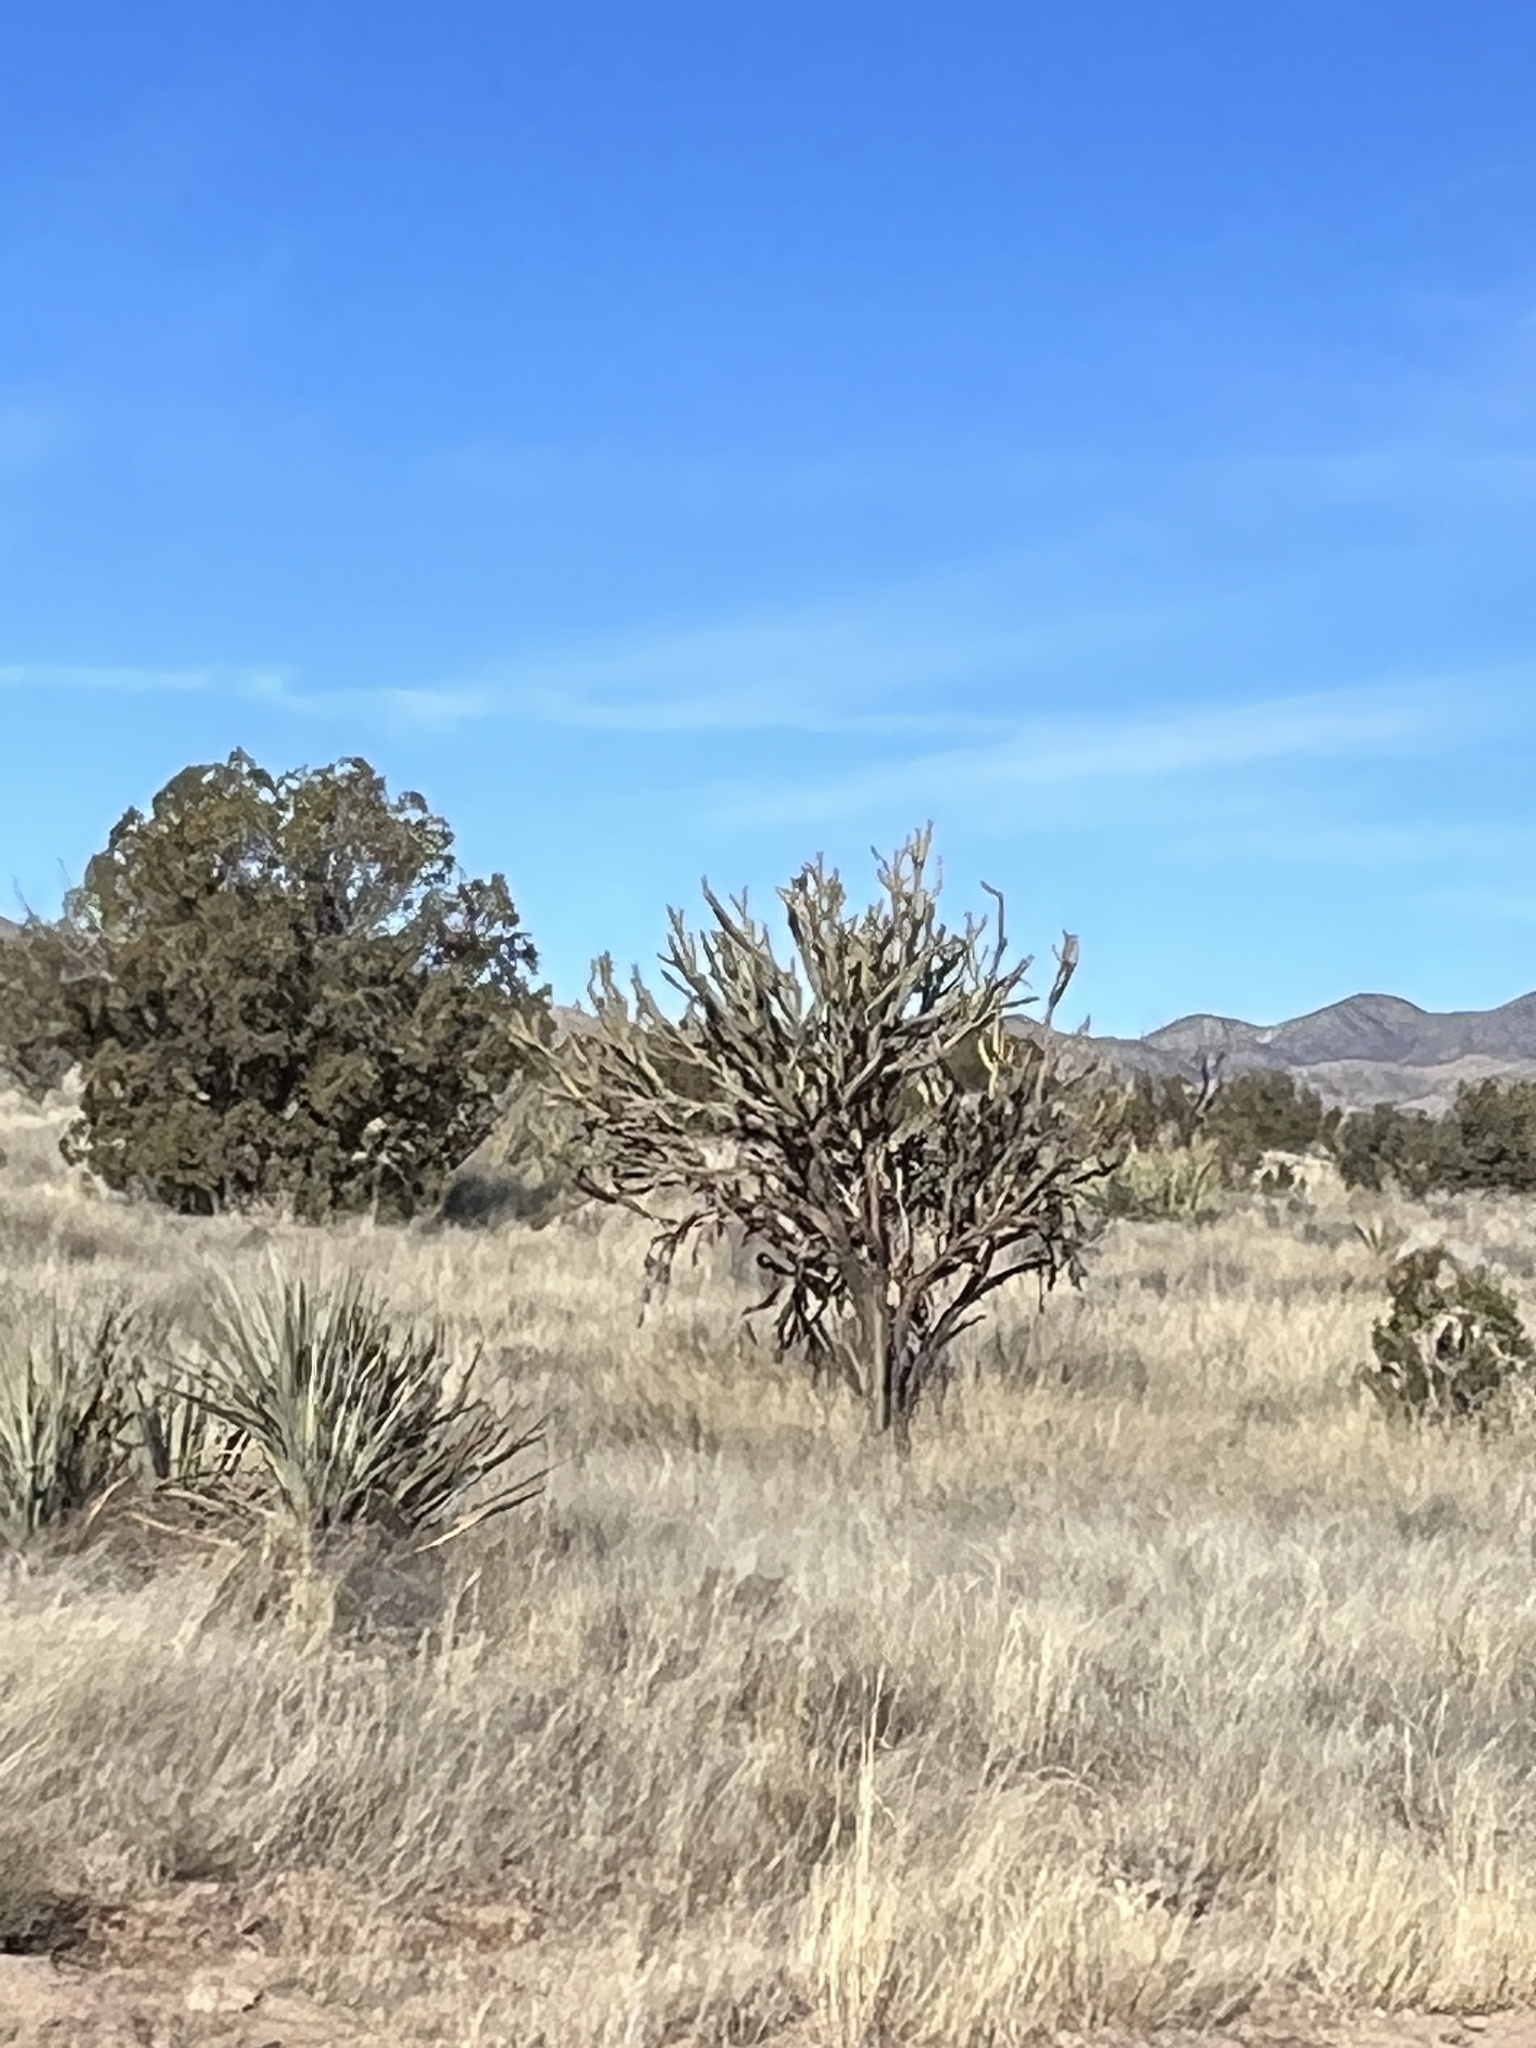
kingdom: Plantae
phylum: Tracheophyta
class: Magnoliopsida
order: Caryophyllales
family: Cactaceae
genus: Cylindropuntia
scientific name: Cylindropuntia acanthocarpa
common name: Buckhorn cholla
